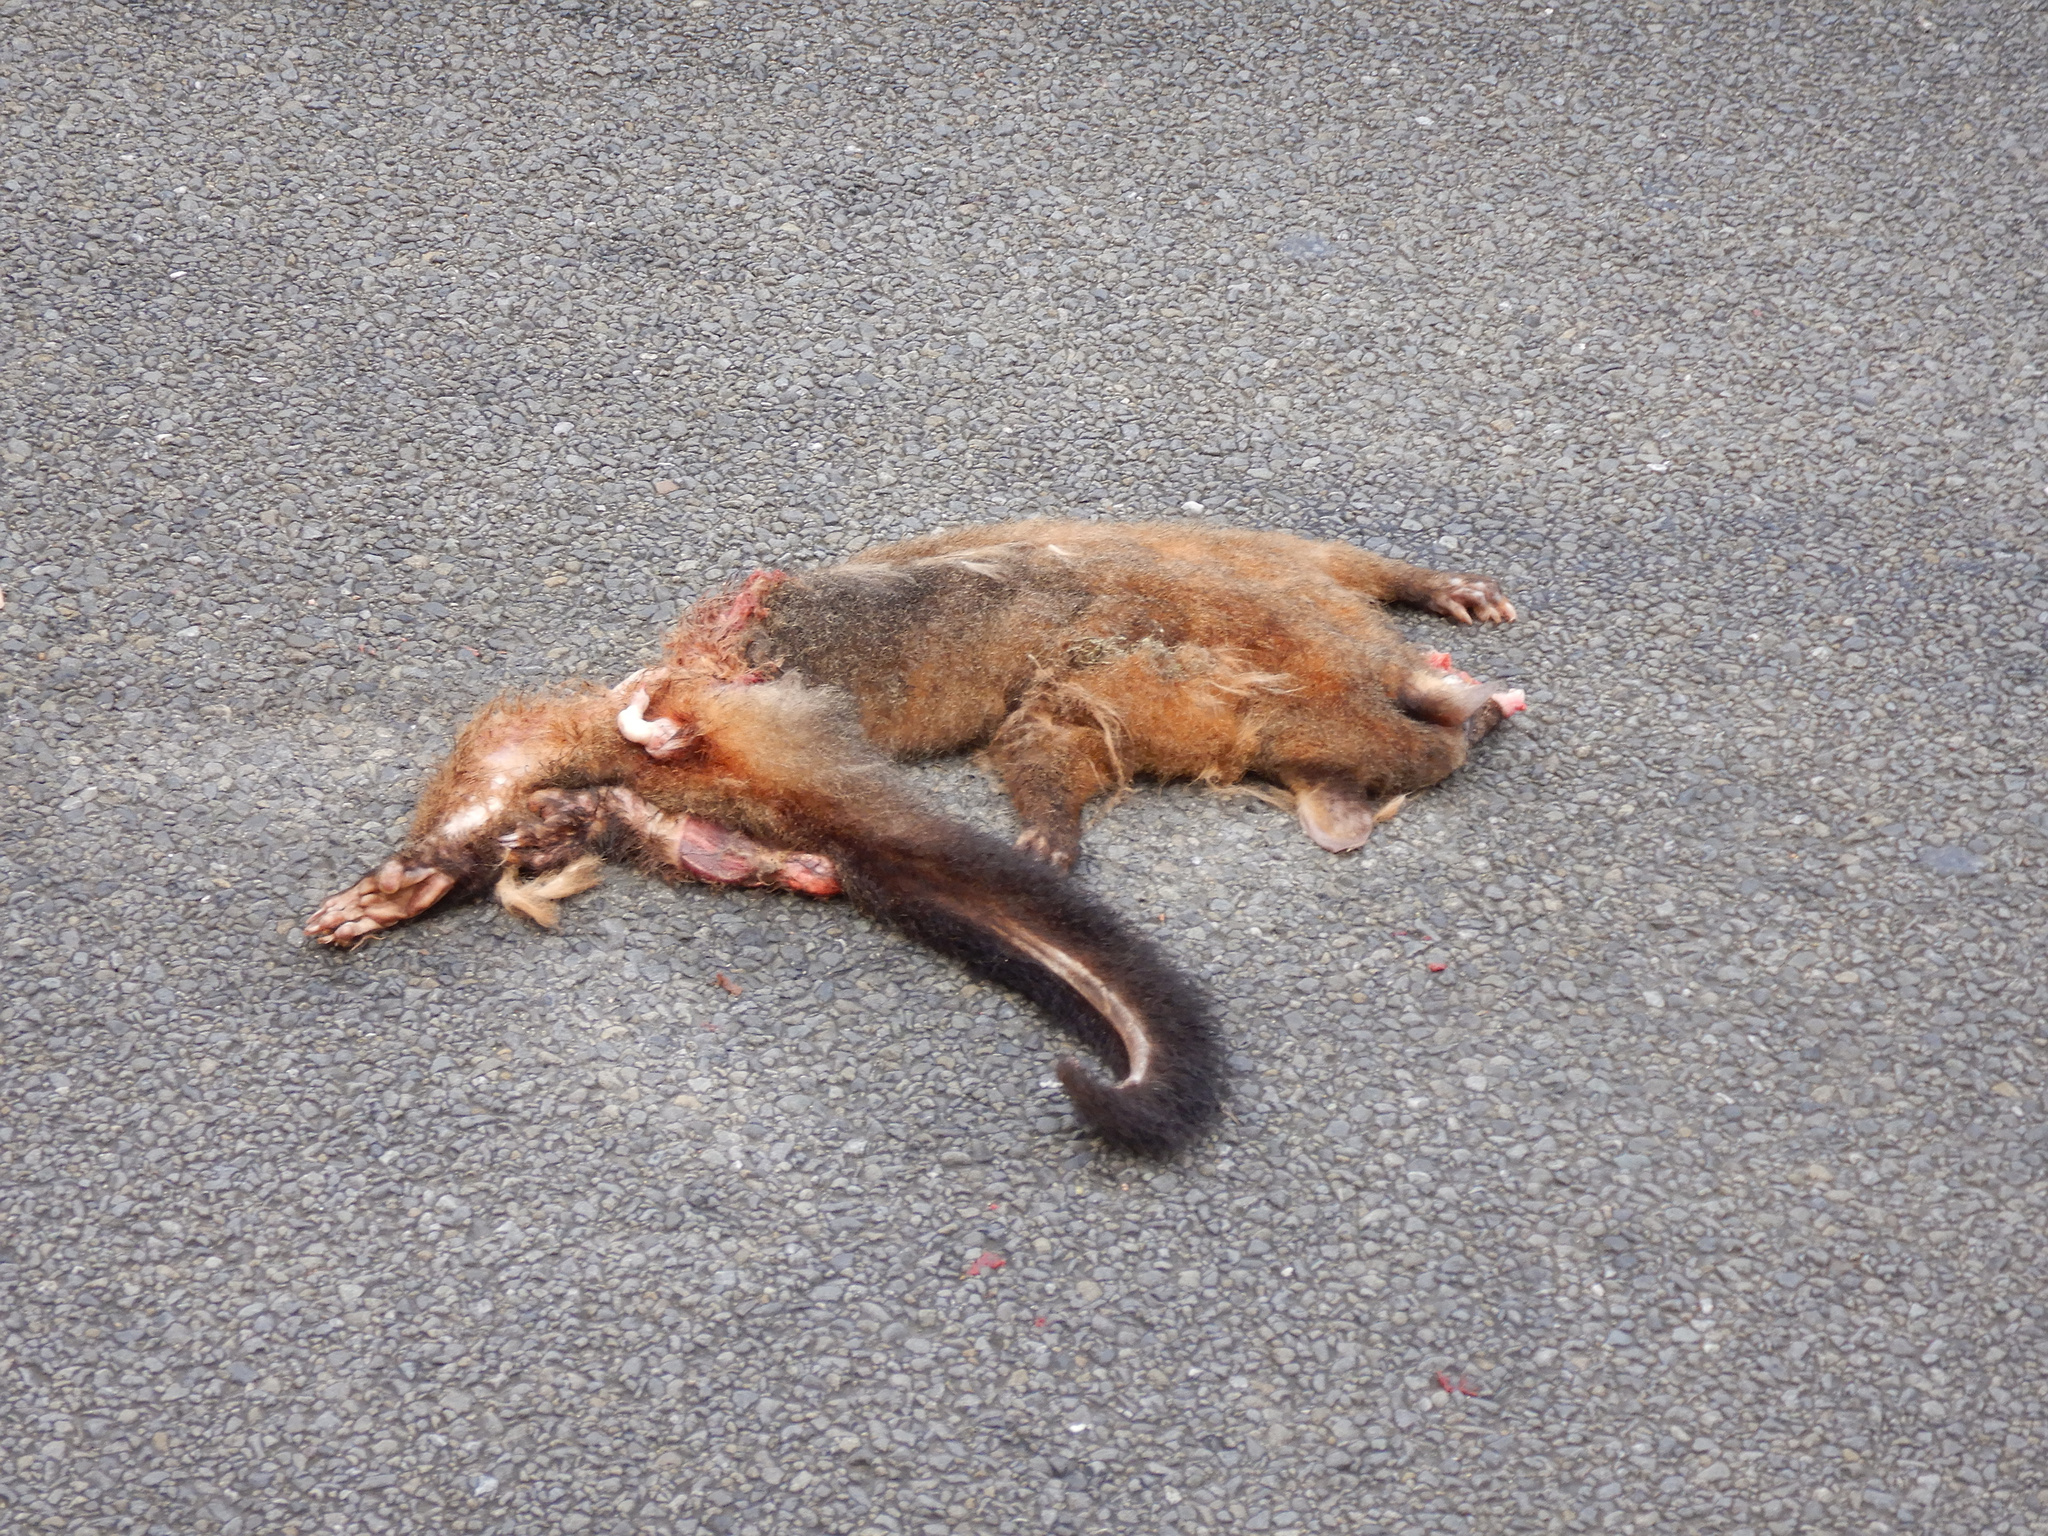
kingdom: Animalia
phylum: Chordata
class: Mammalia
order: Diprotodontia
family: Phalangeridae
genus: Trichosurus
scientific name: Trichosurus vulpecula
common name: Common brushtail
